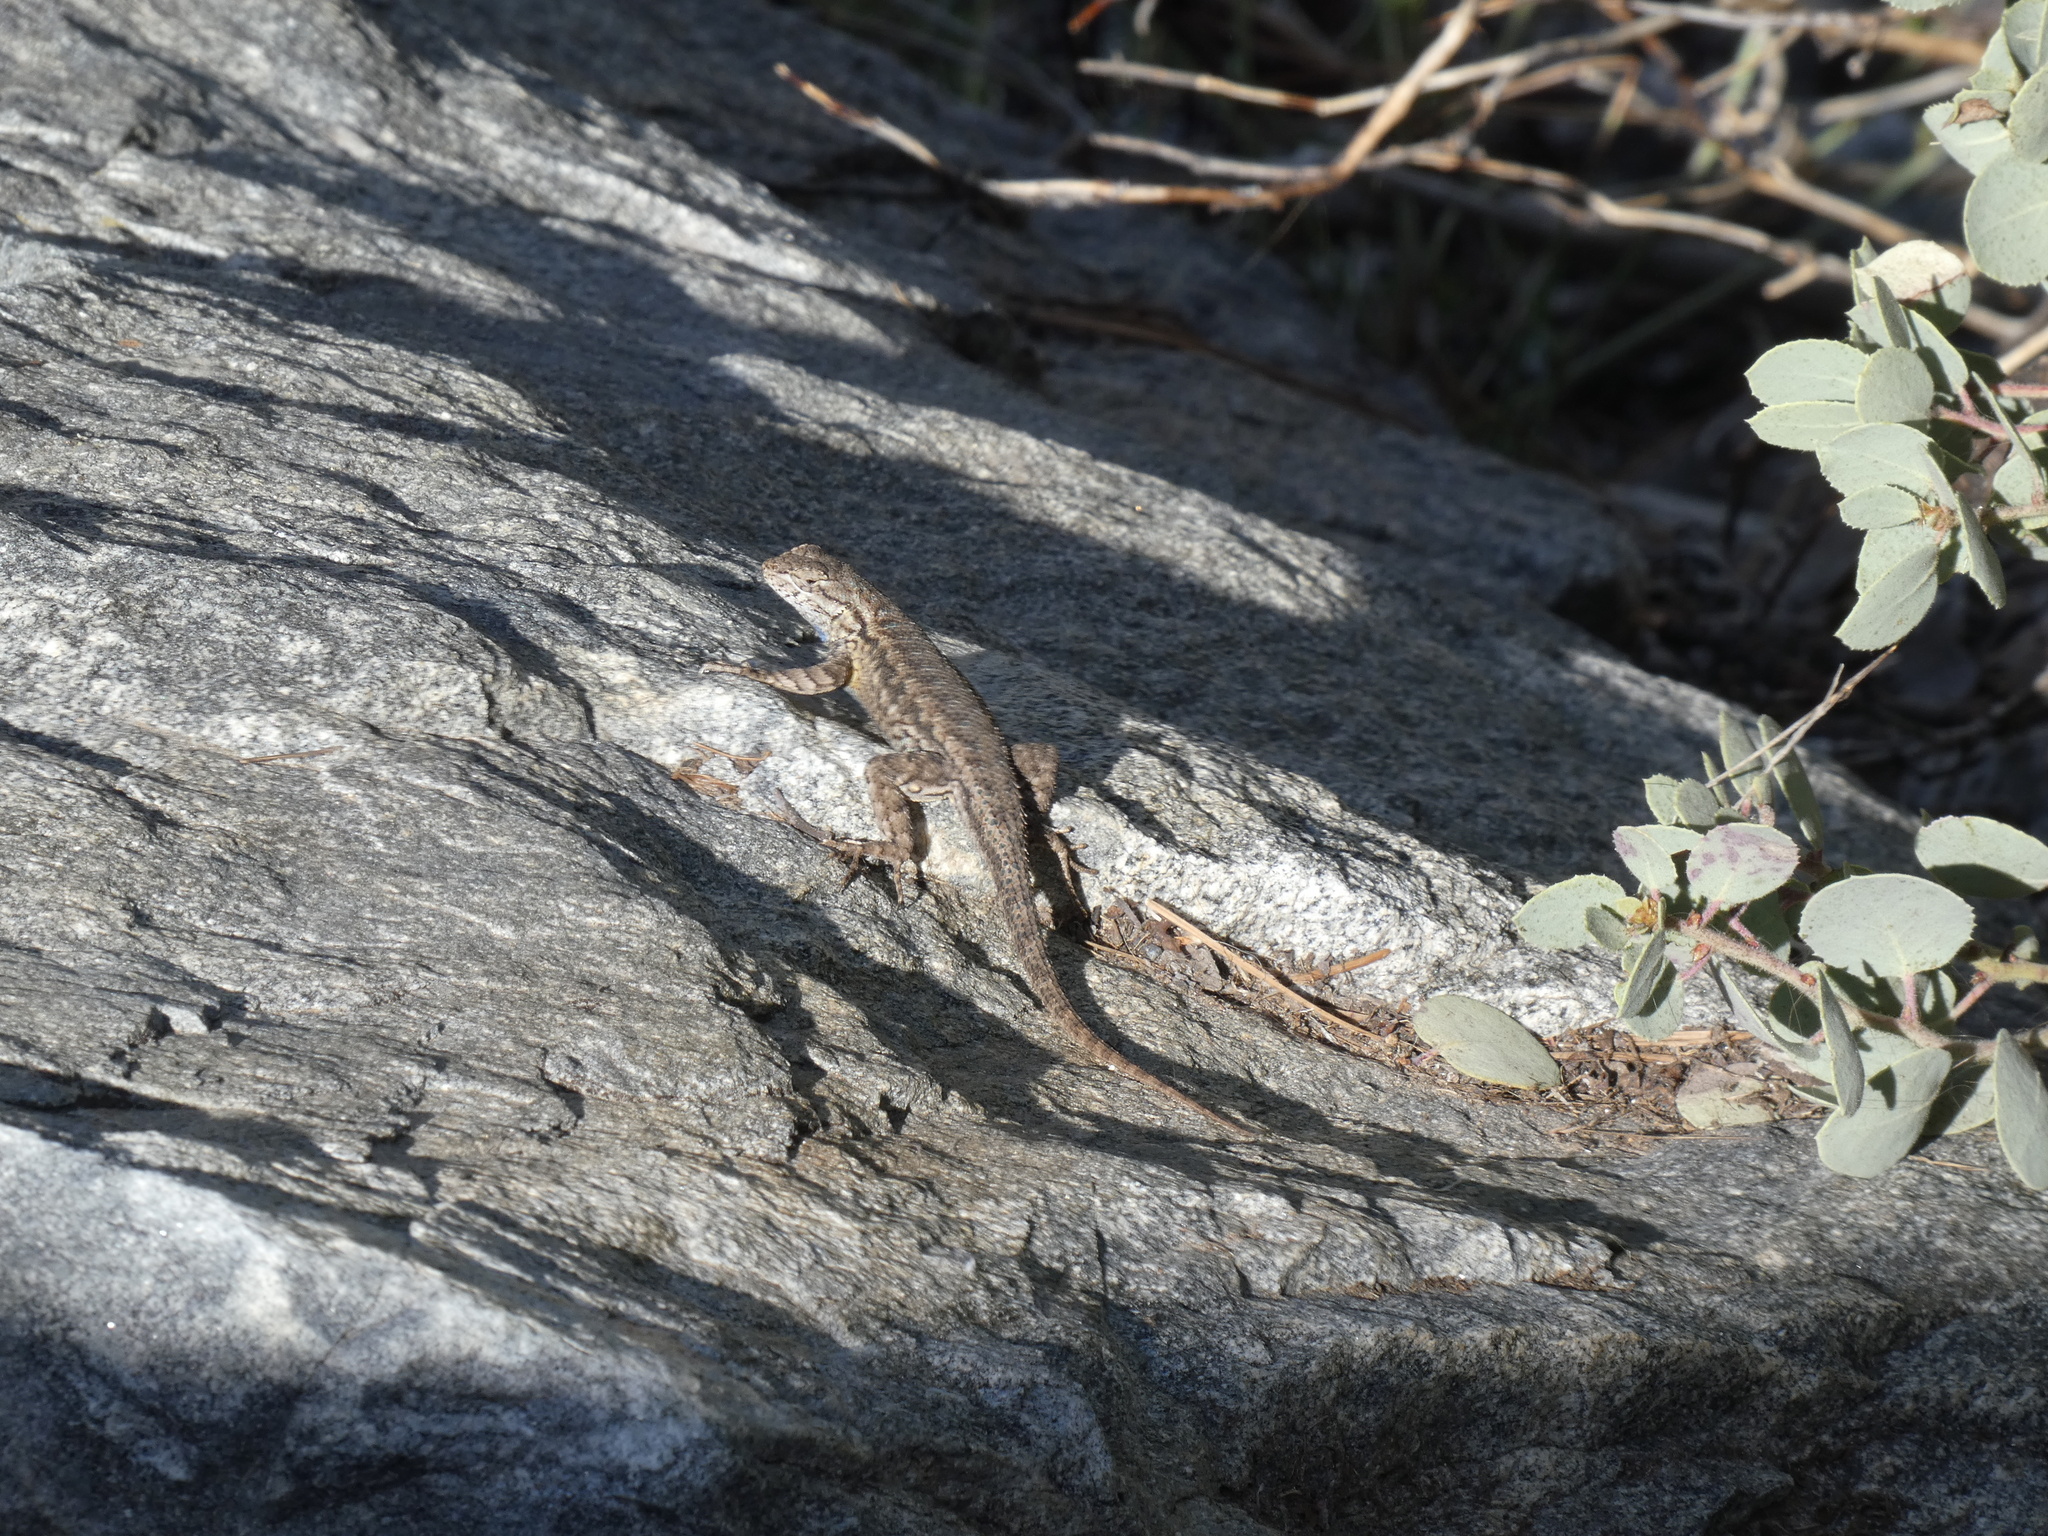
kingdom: Animalia
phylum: Chordata
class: Squamata
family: Phrynosomatidae
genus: Sceloporus
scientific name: Sceloporus occidentalis
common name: Western fence lizard
